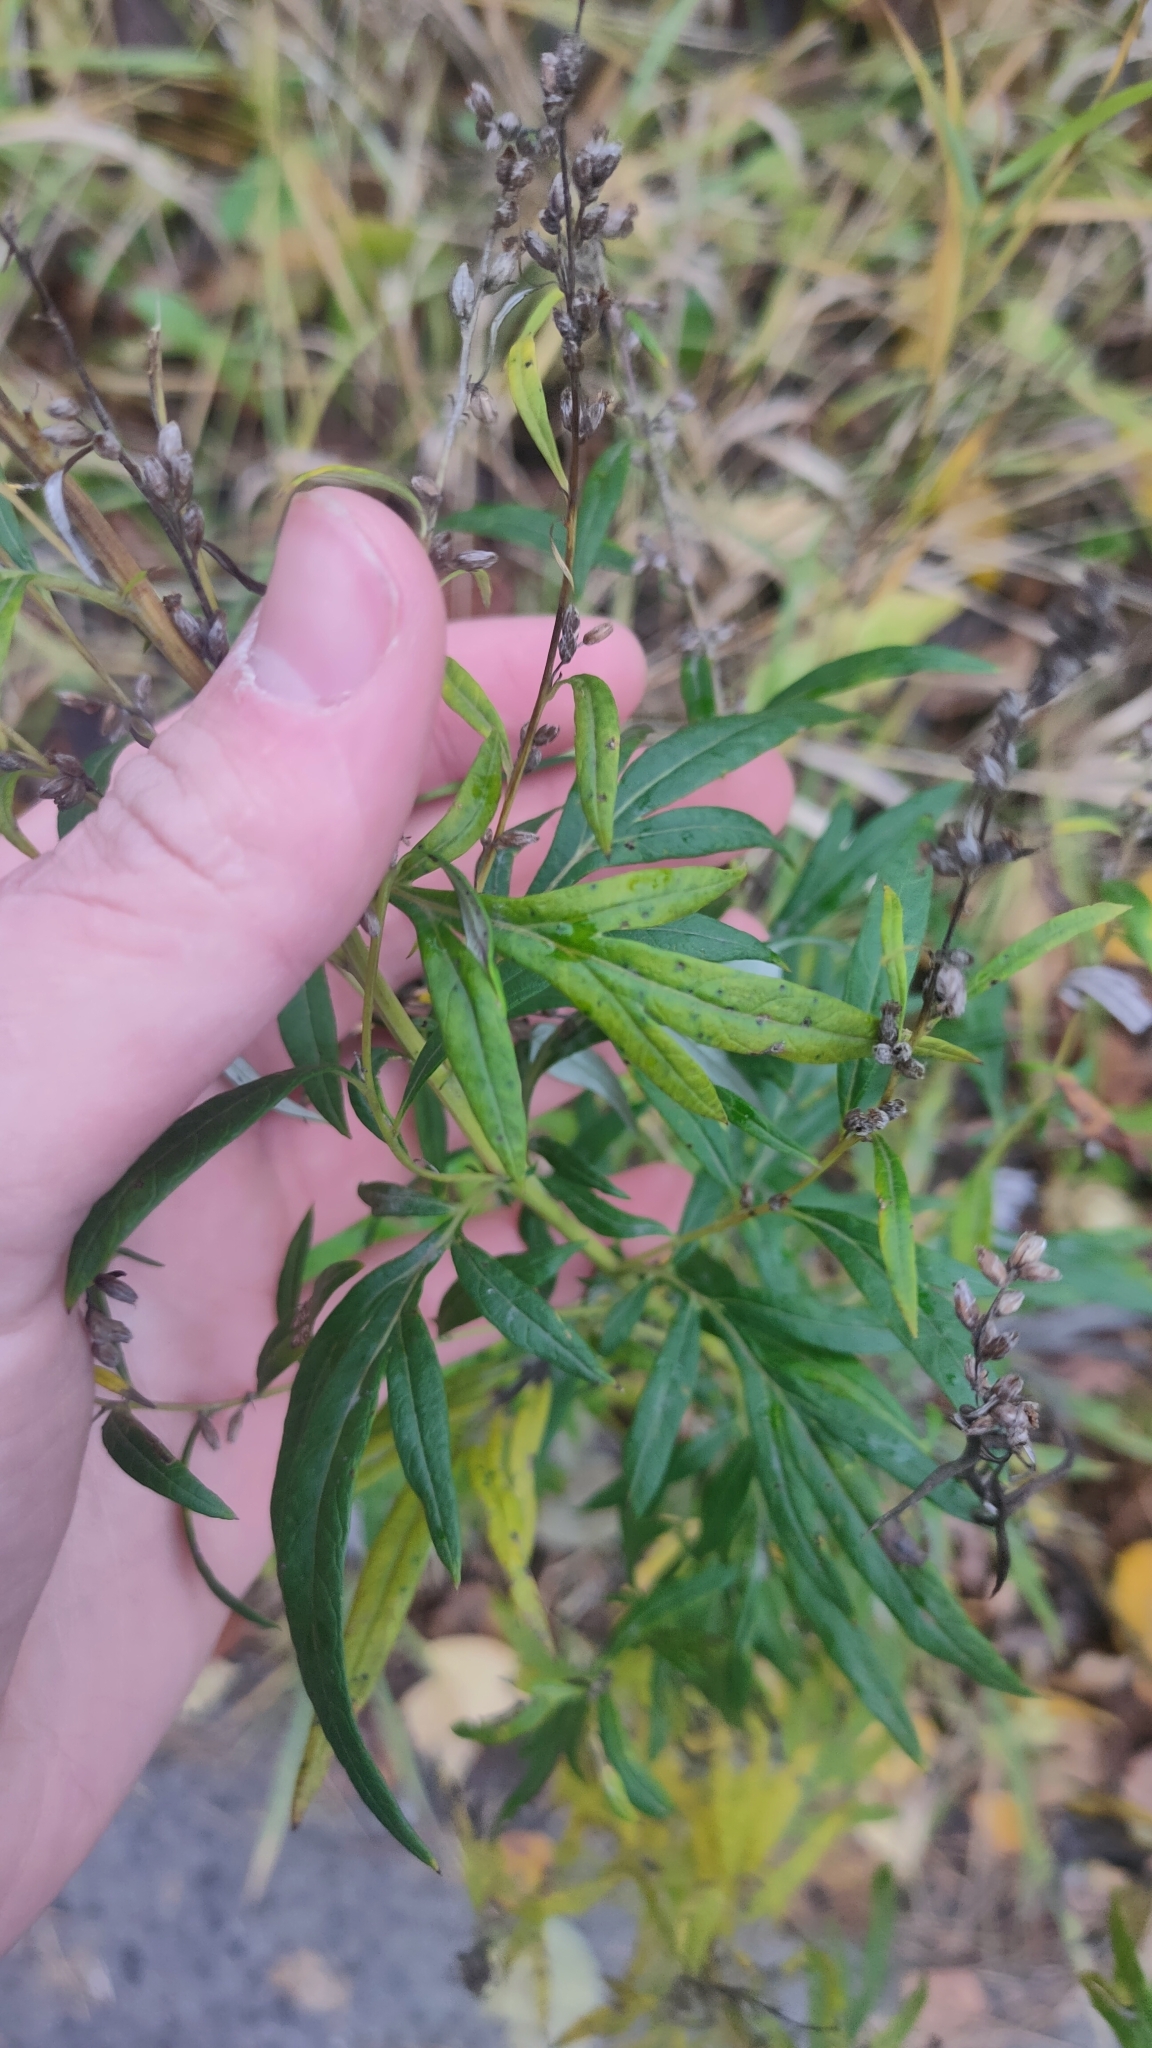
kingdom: Plantae
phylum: Tracheophyta
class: Magnoliopsida
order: Asterales
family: Asteraceae
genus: Artemisia
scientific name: Artemisia vulgaris
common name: Mugwort
